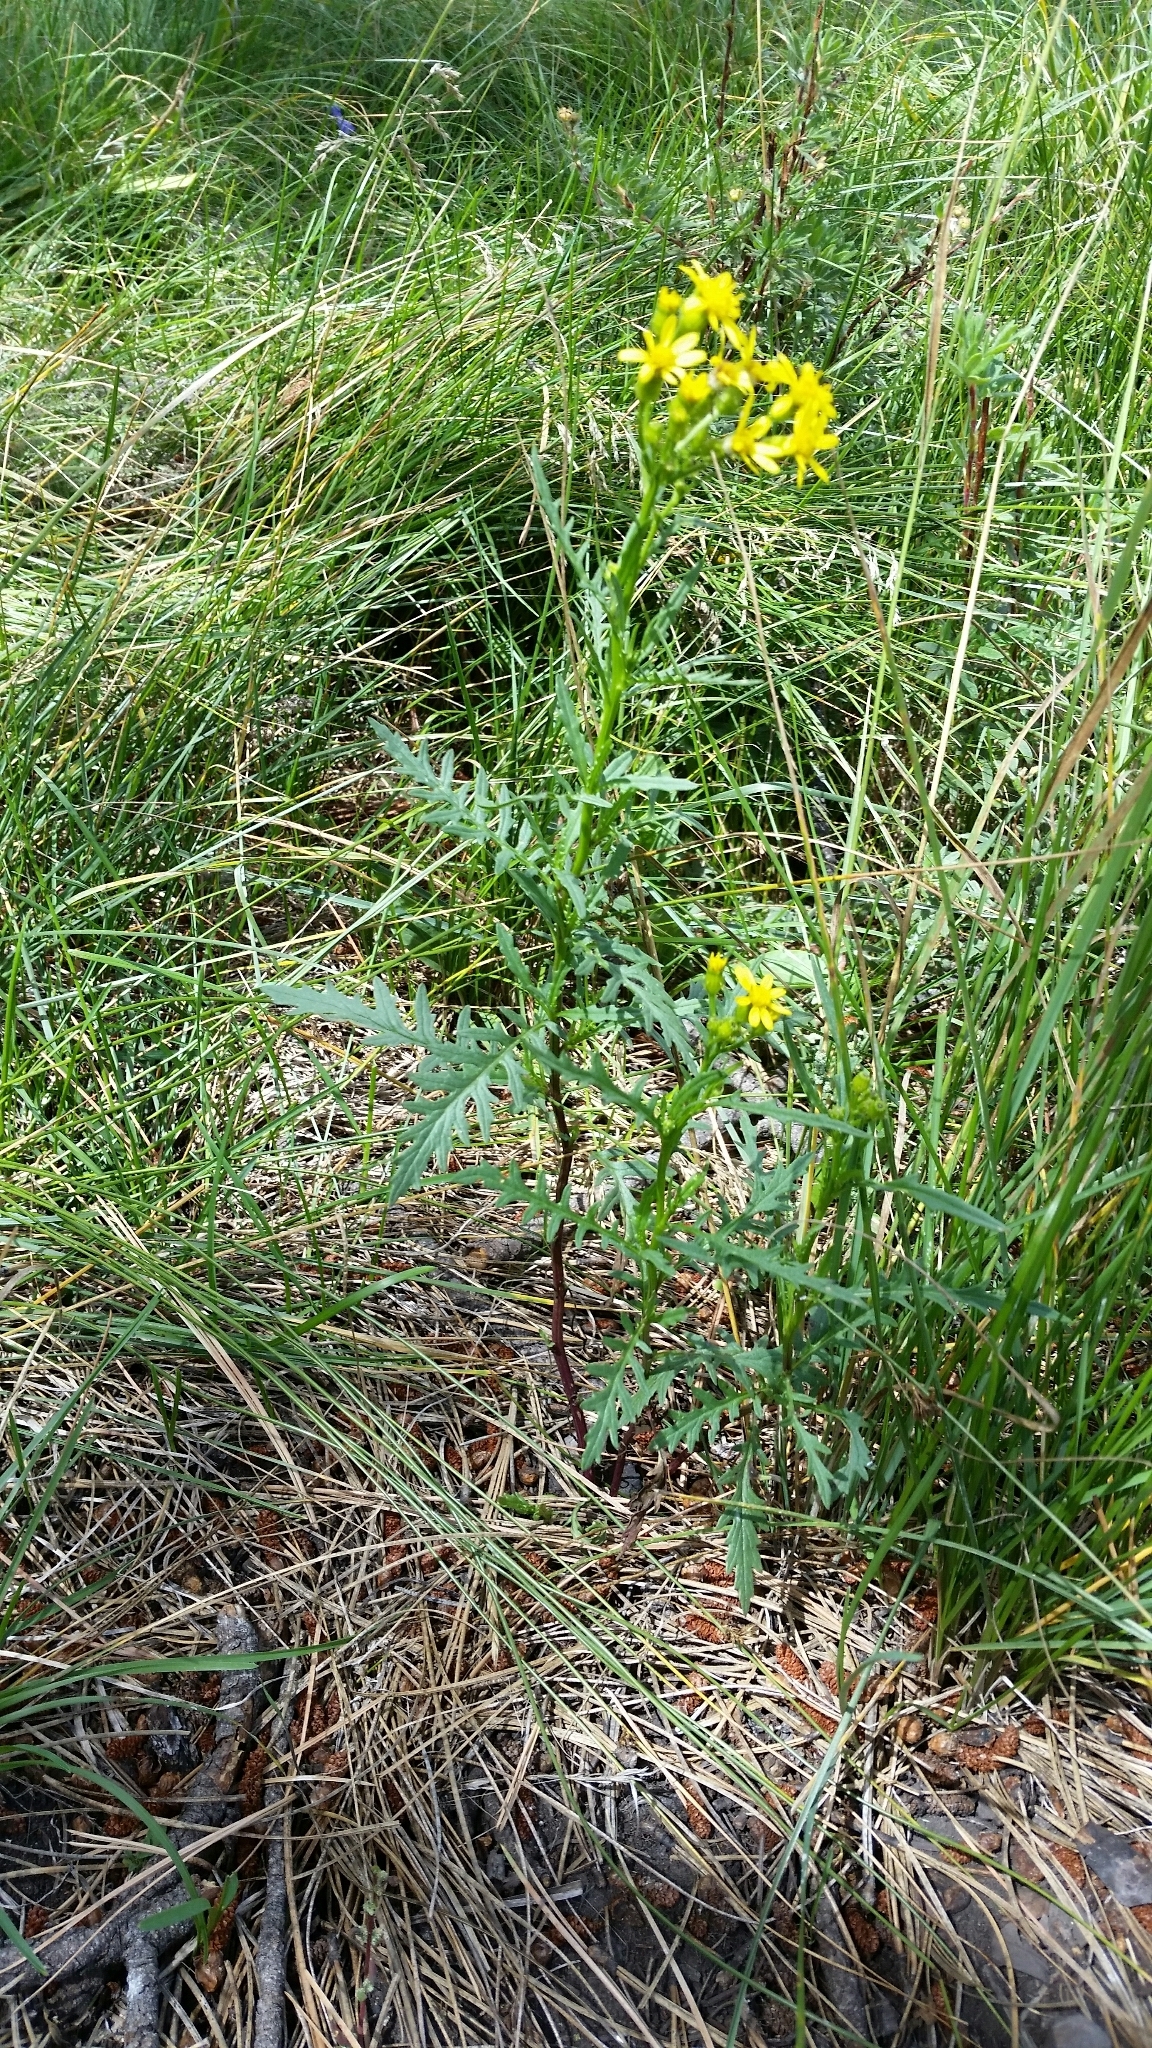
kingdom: Plantae
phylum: Tracheophyta
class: Magnoliopsida
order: Asterales
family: Asteraceae
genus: Senecio
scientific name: Senecio eremophilus
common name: Desert ragwort
